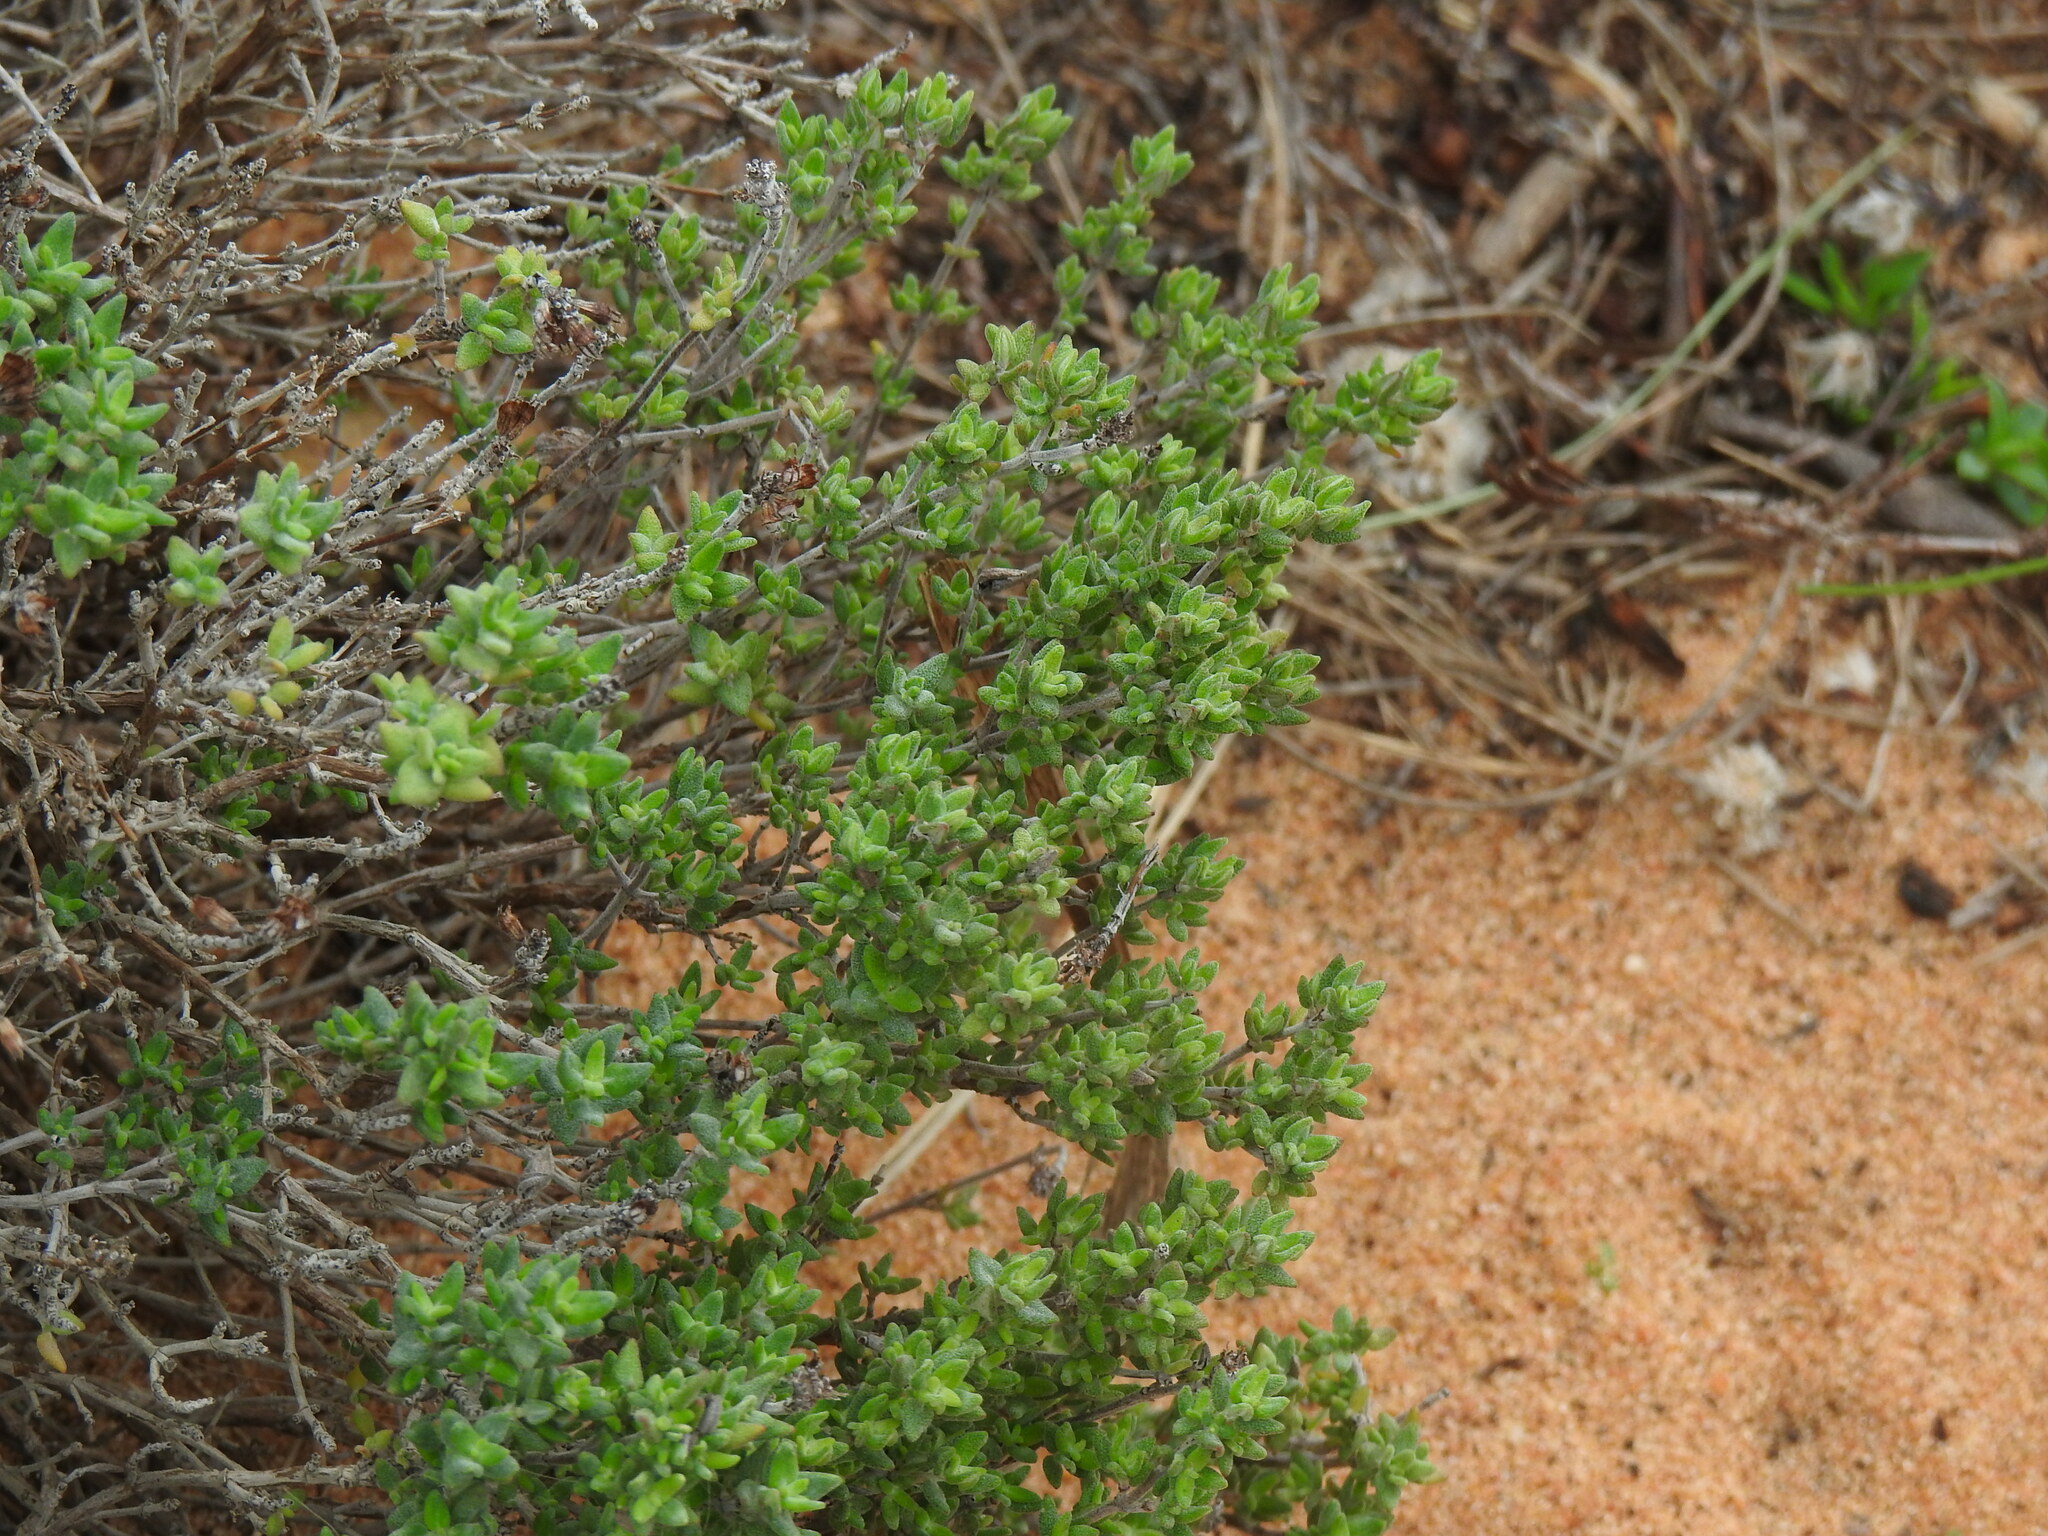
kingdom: Plantae
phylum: Tracheophyta
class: Magnoliopsida
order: Lamiales
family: Lamiaceae
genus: Thymus
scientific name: Thymus camphoratus
